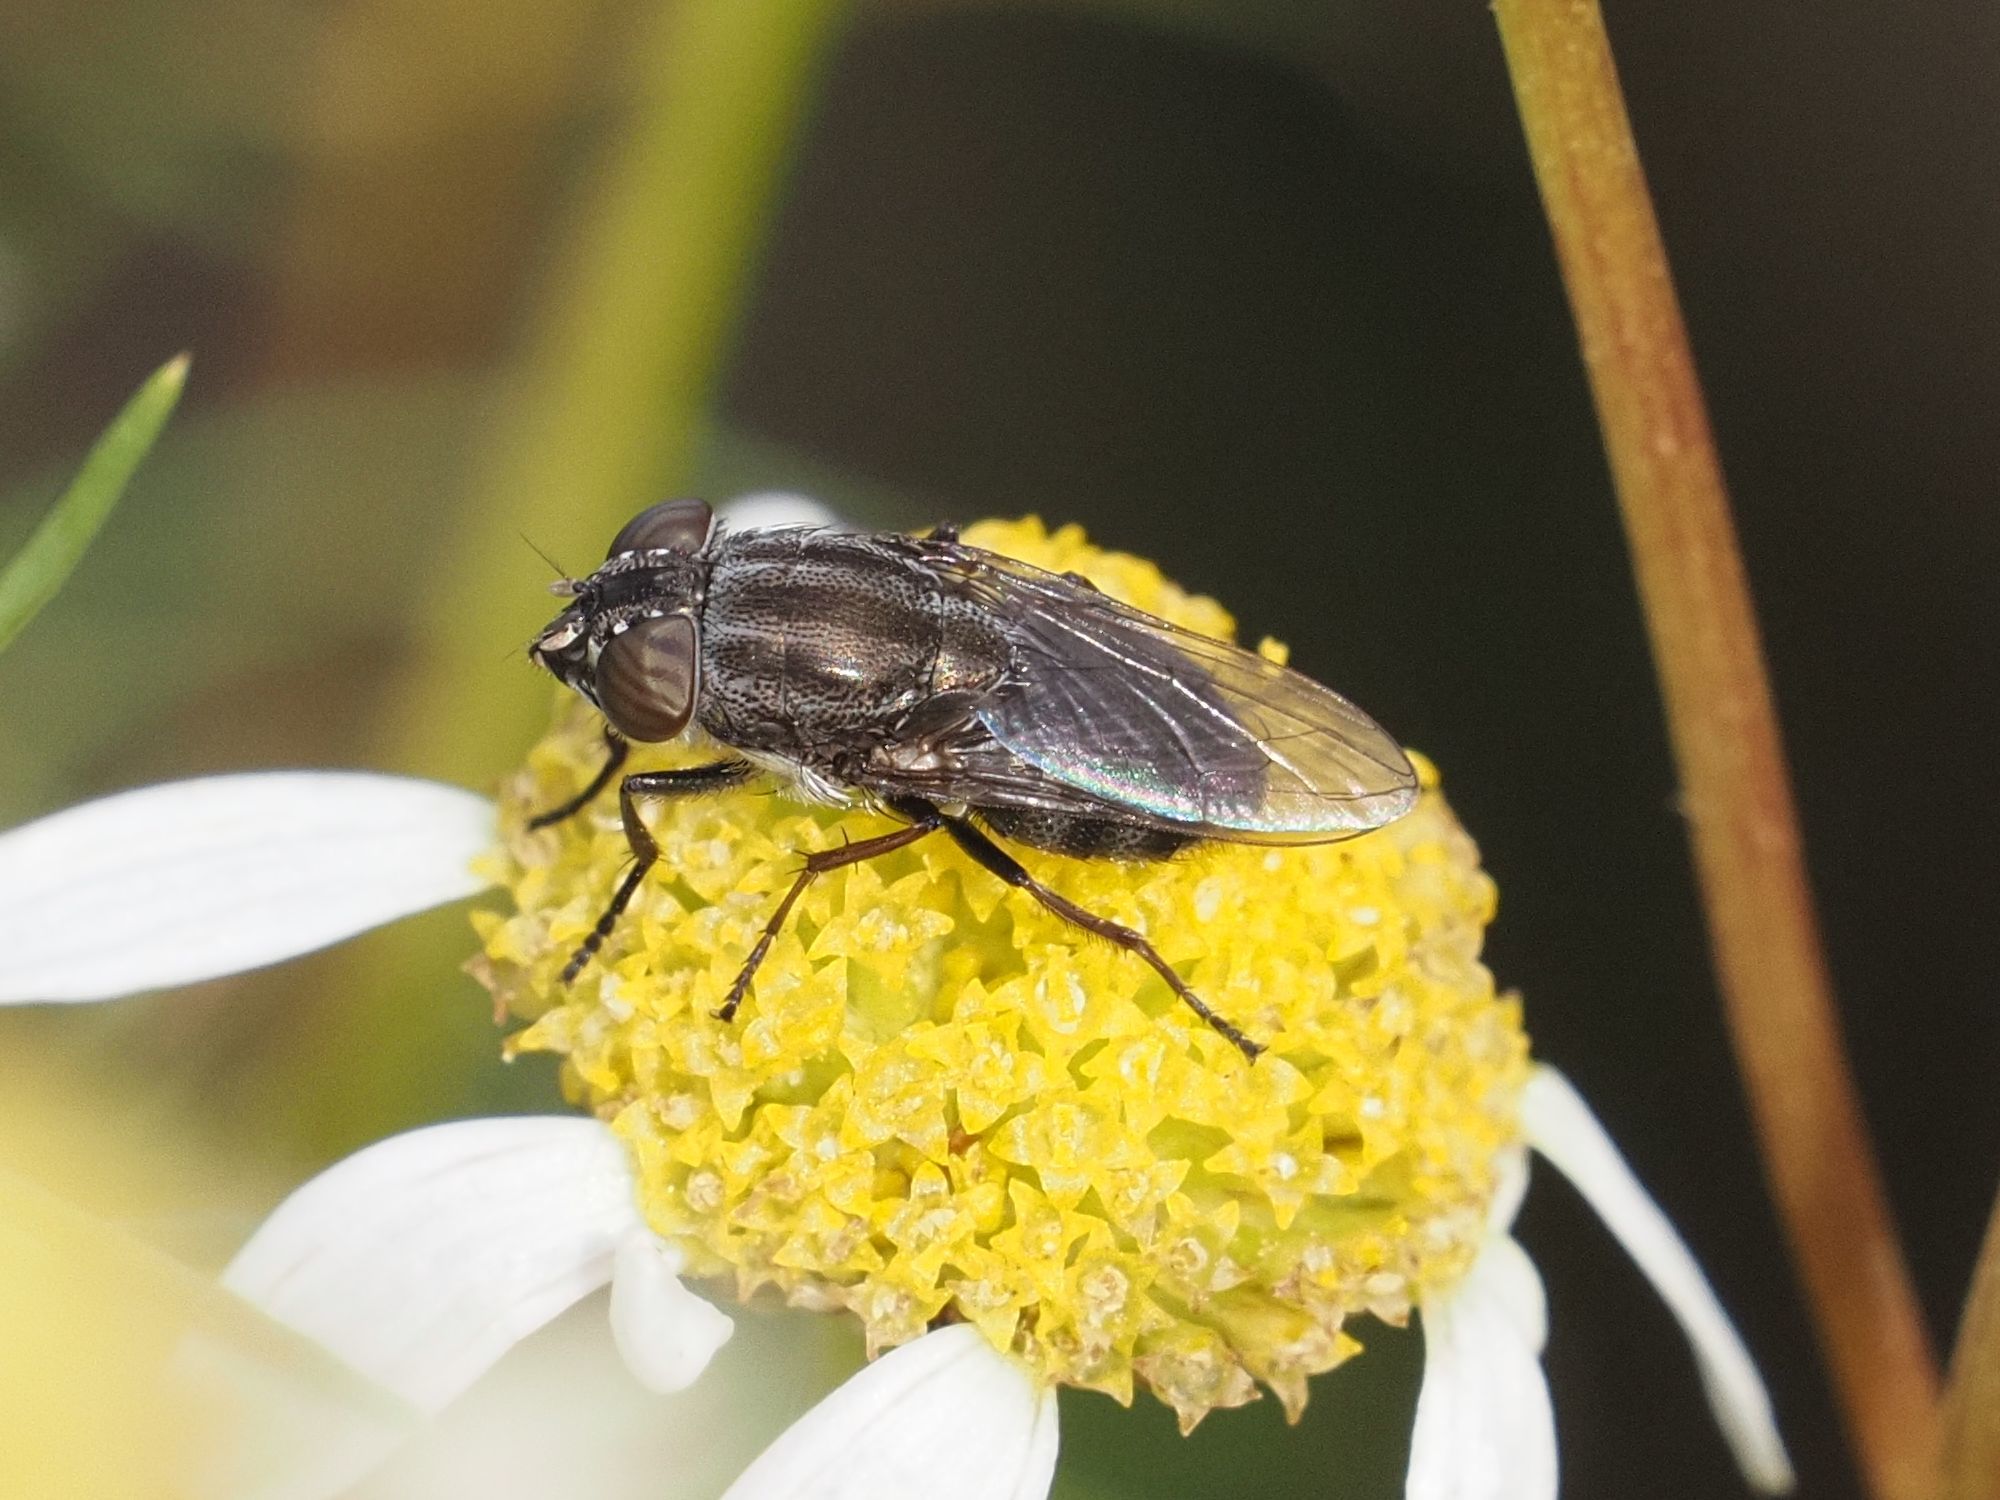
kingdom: Animalia
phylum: Arthropoda
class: Insecta
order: Diptera
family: Calliphoridae
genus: Stomorhina
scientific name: Stomorhina lunata
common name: Locust blowfly
